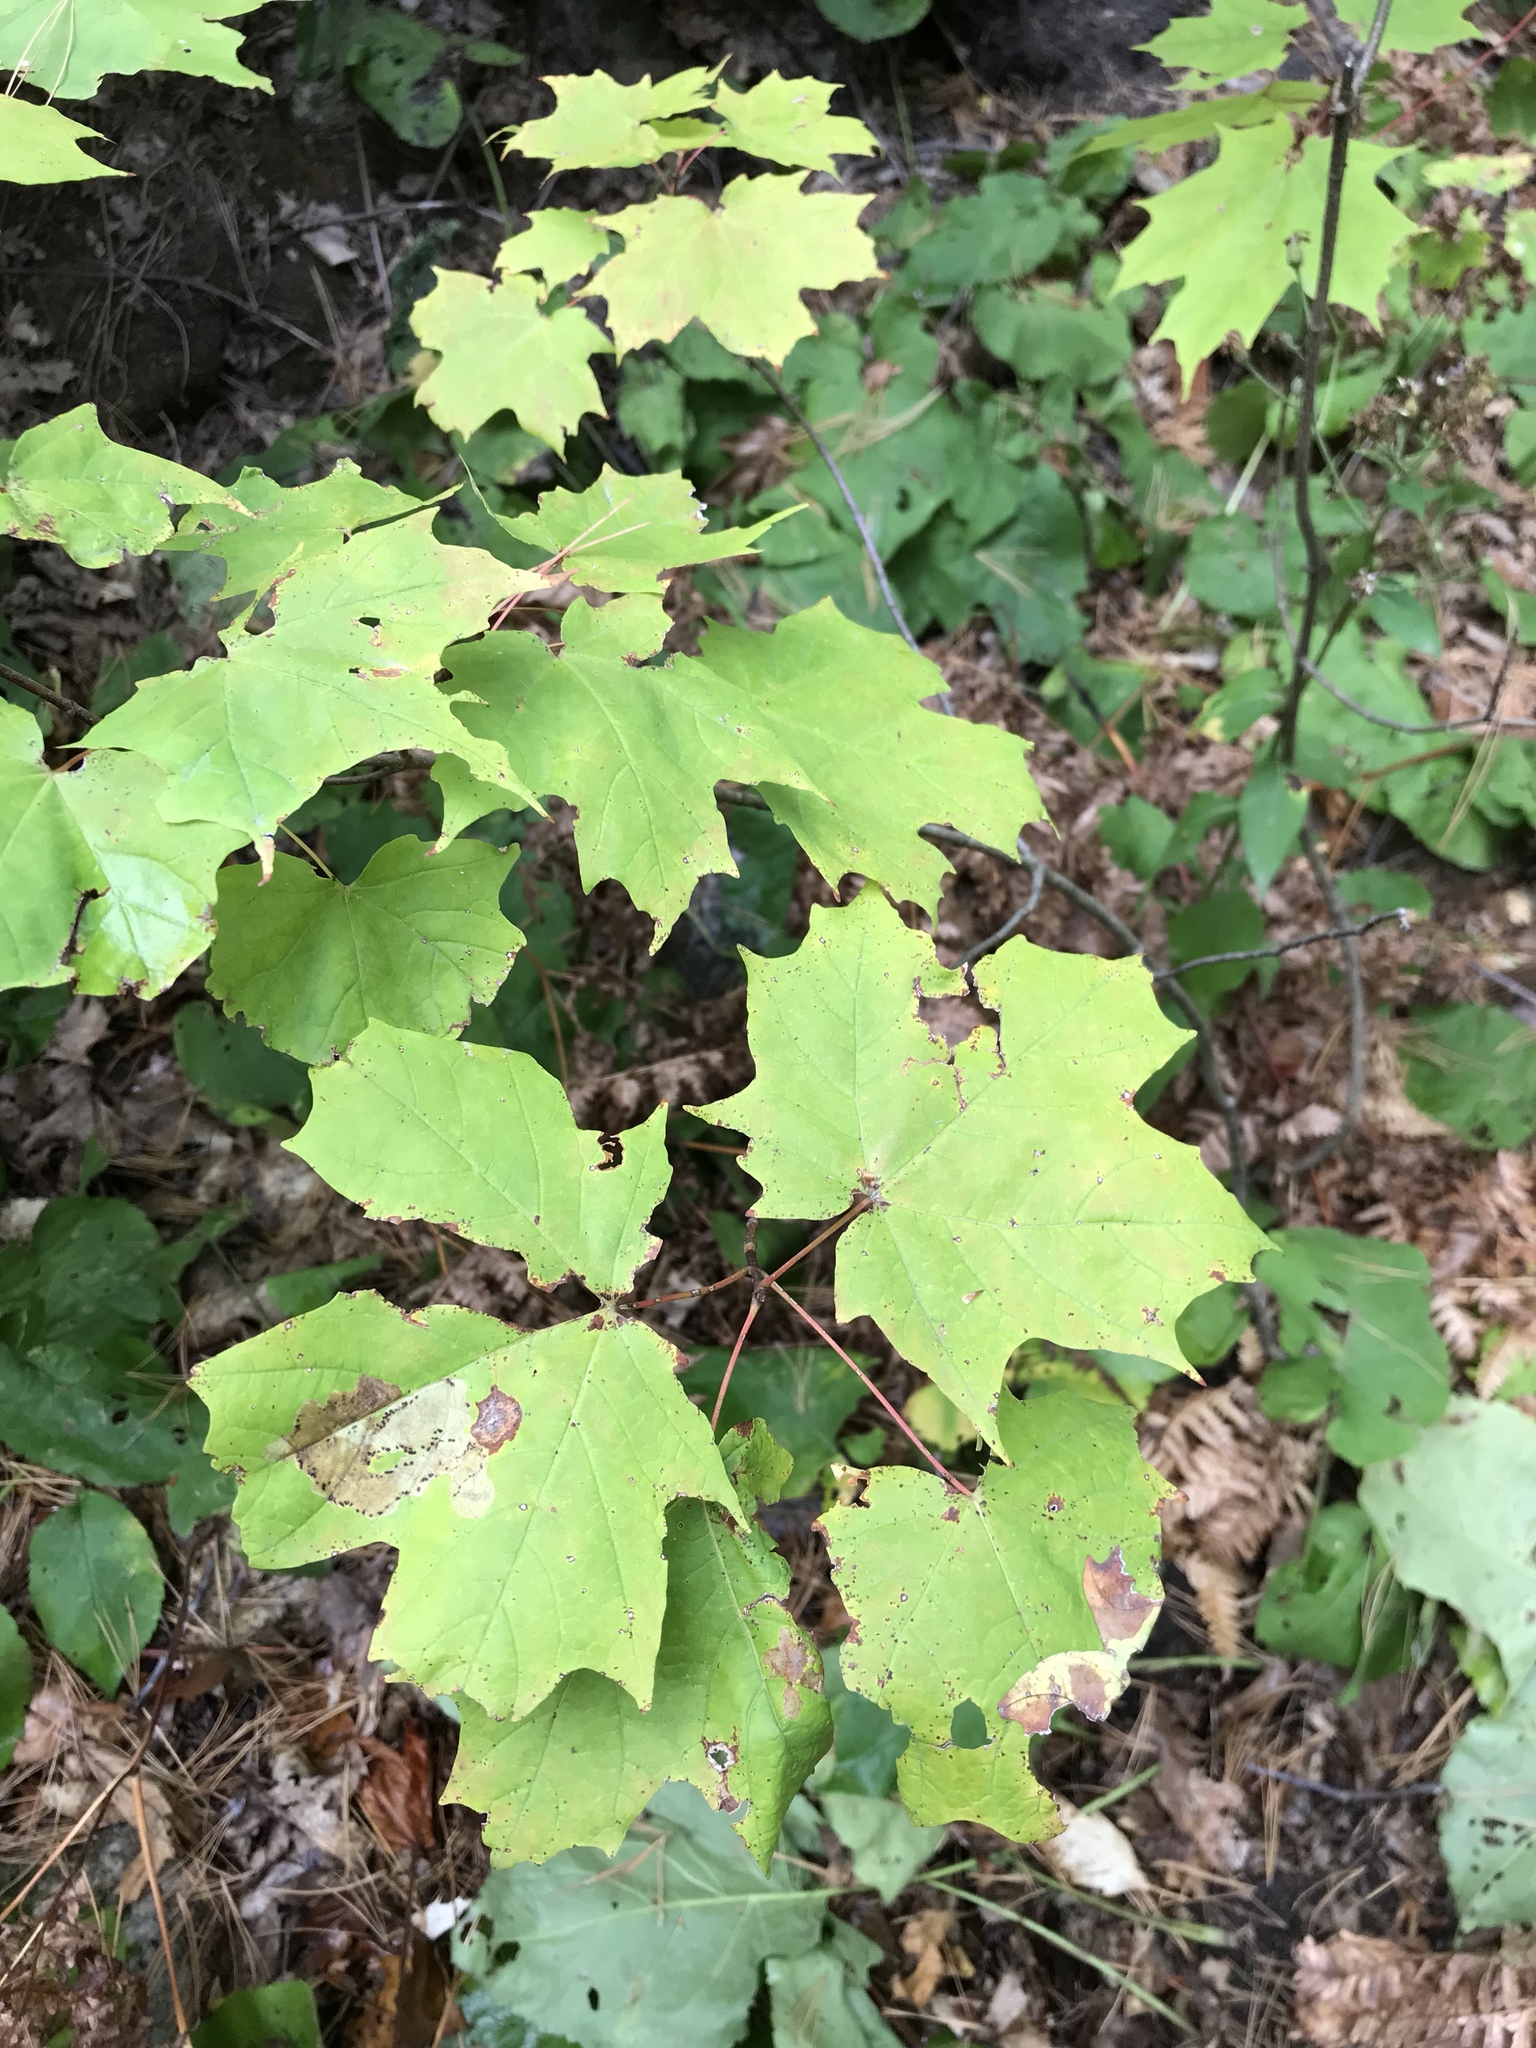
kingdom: Plantae
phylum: Tracheophyta
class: Magnoliopsida
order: Sapindales
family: Sapindaceae
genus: Acer
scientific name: Acer saccharum
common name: Sugar maple
